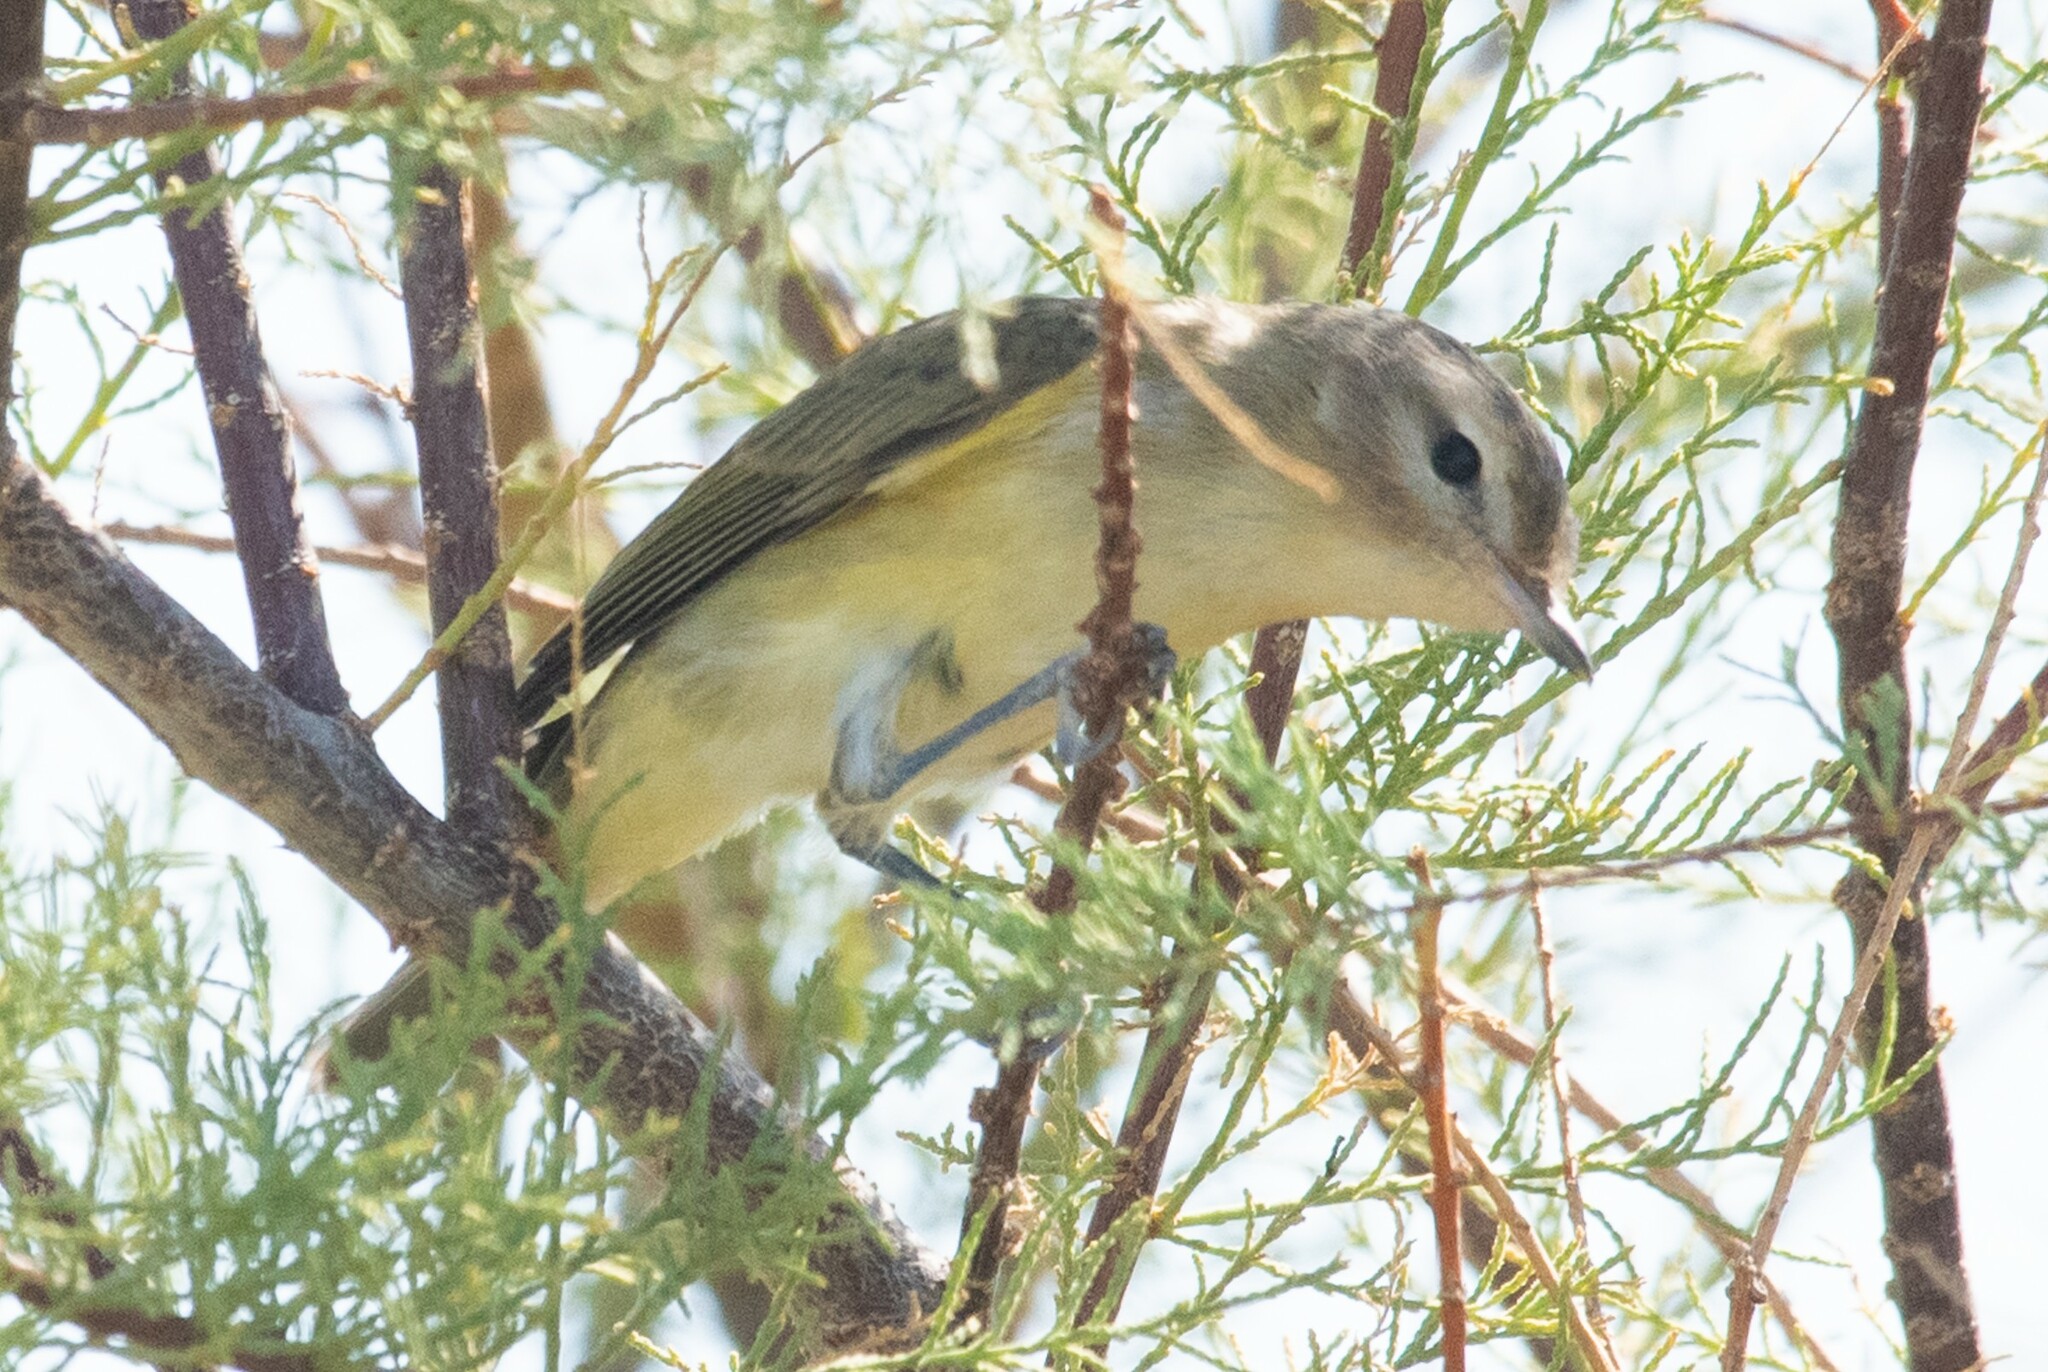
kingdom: Animalia
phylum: Chordata
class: Aves
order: Passeriformes
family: Vireonidae
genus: Vireo
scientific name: Vireo gilvus
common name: Warbling vireo
